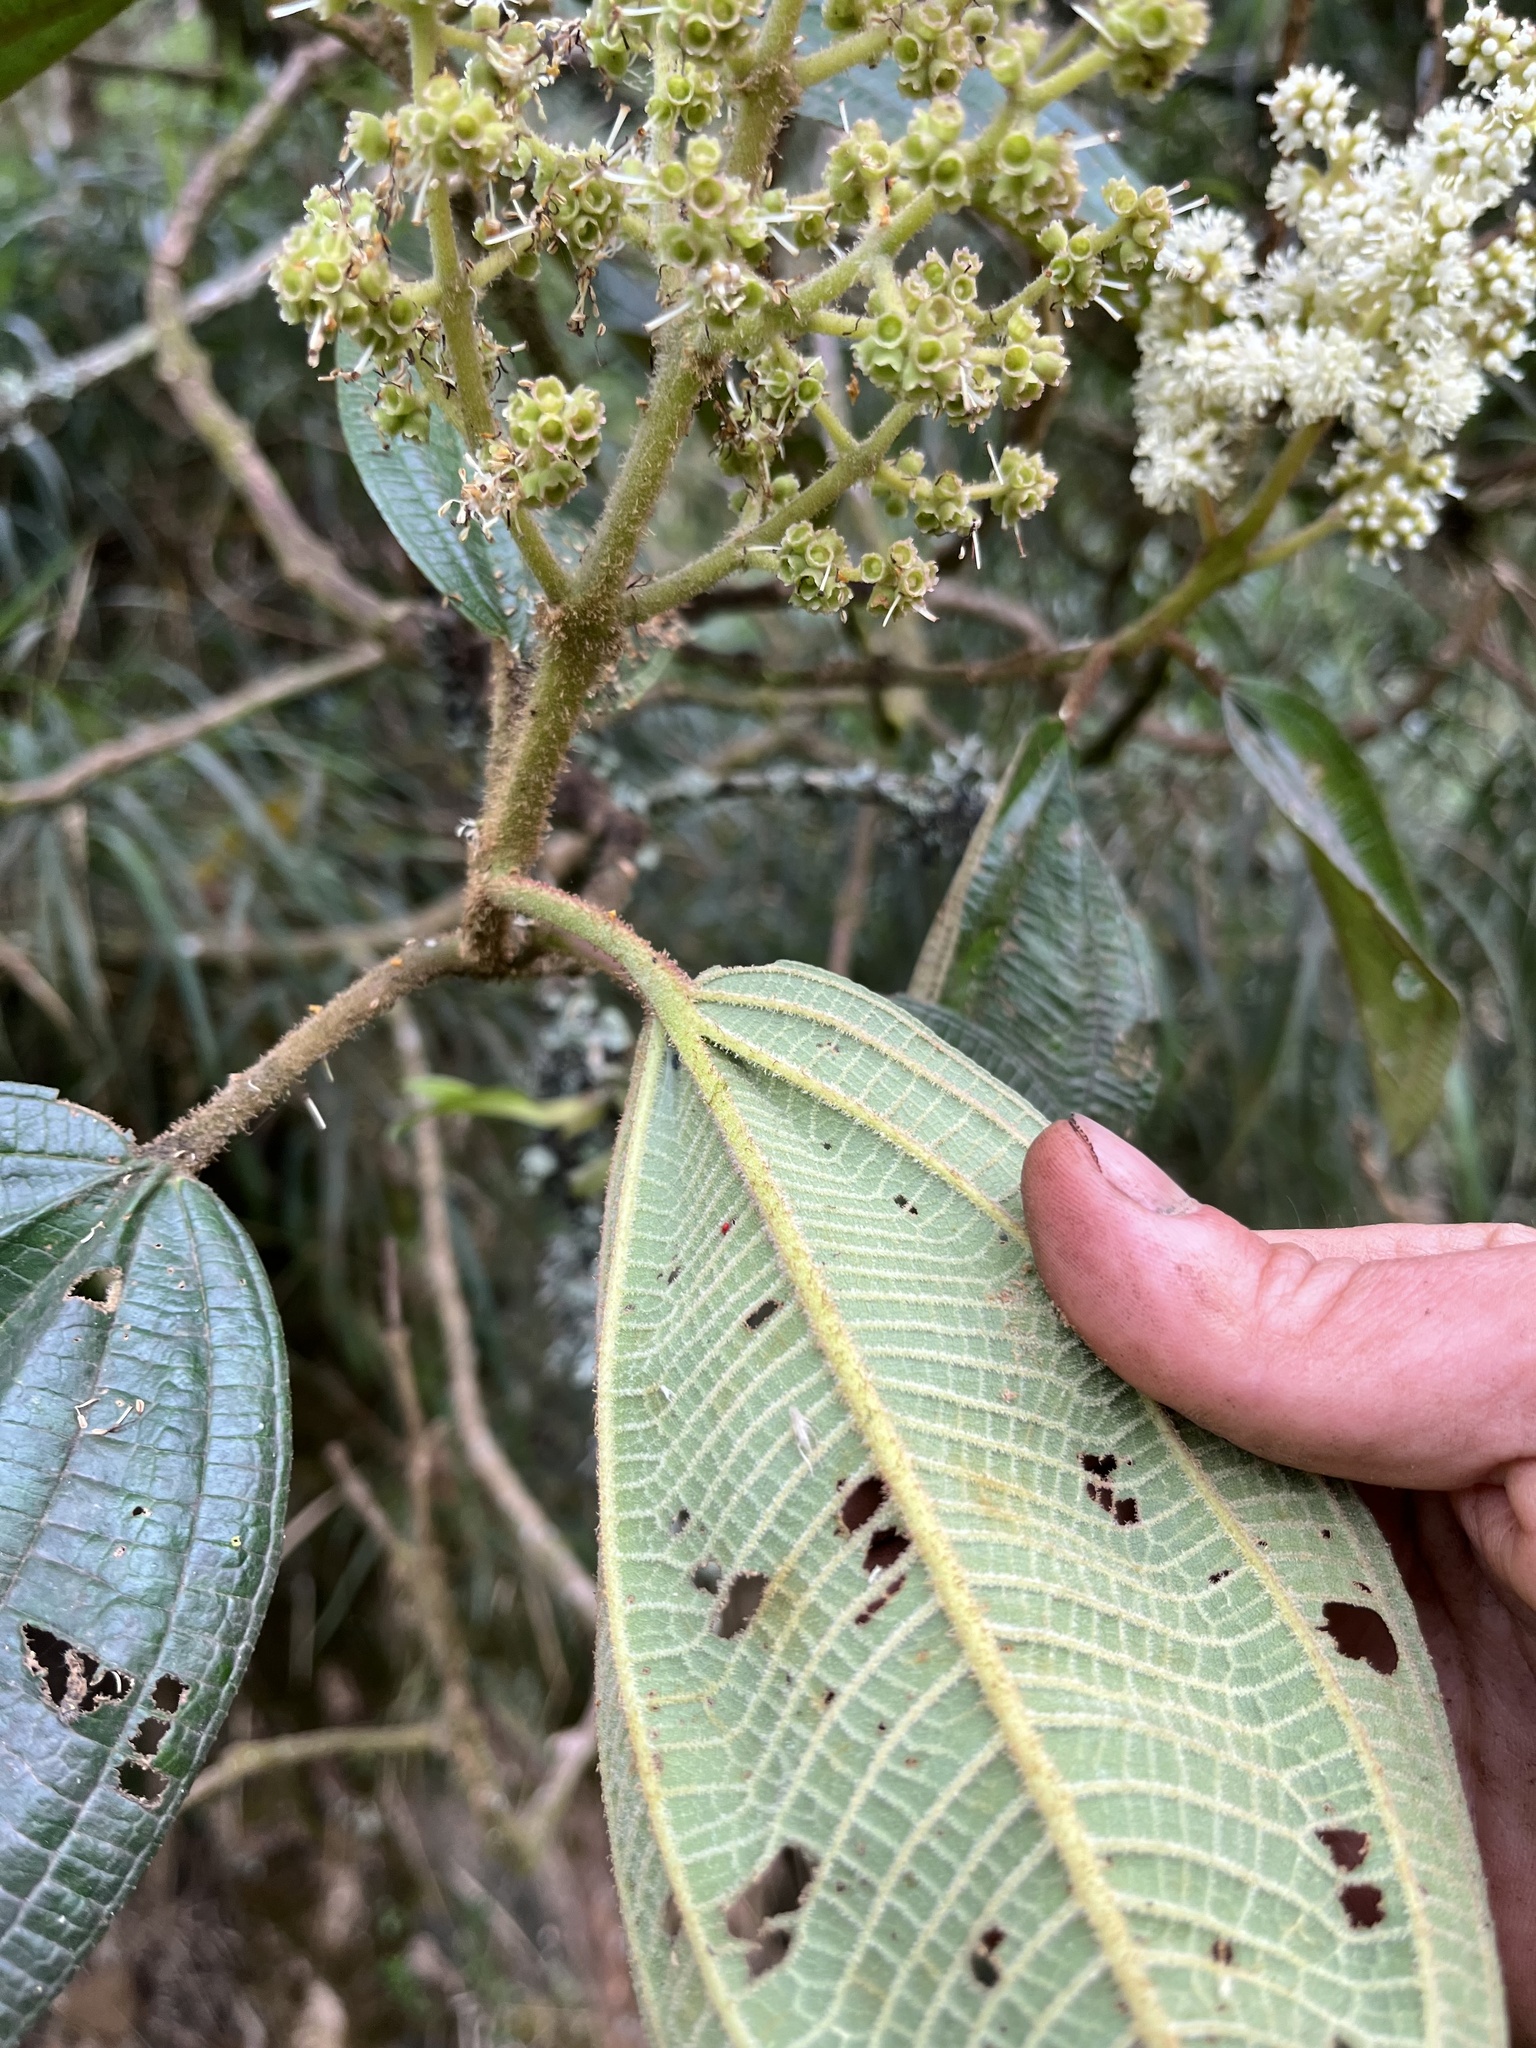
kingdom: Plantae
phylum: Tracheophyta
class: Magnoliopsida
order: Myrtales
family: Melastomataceae
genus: Miconia
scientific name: Miconia plethorica
